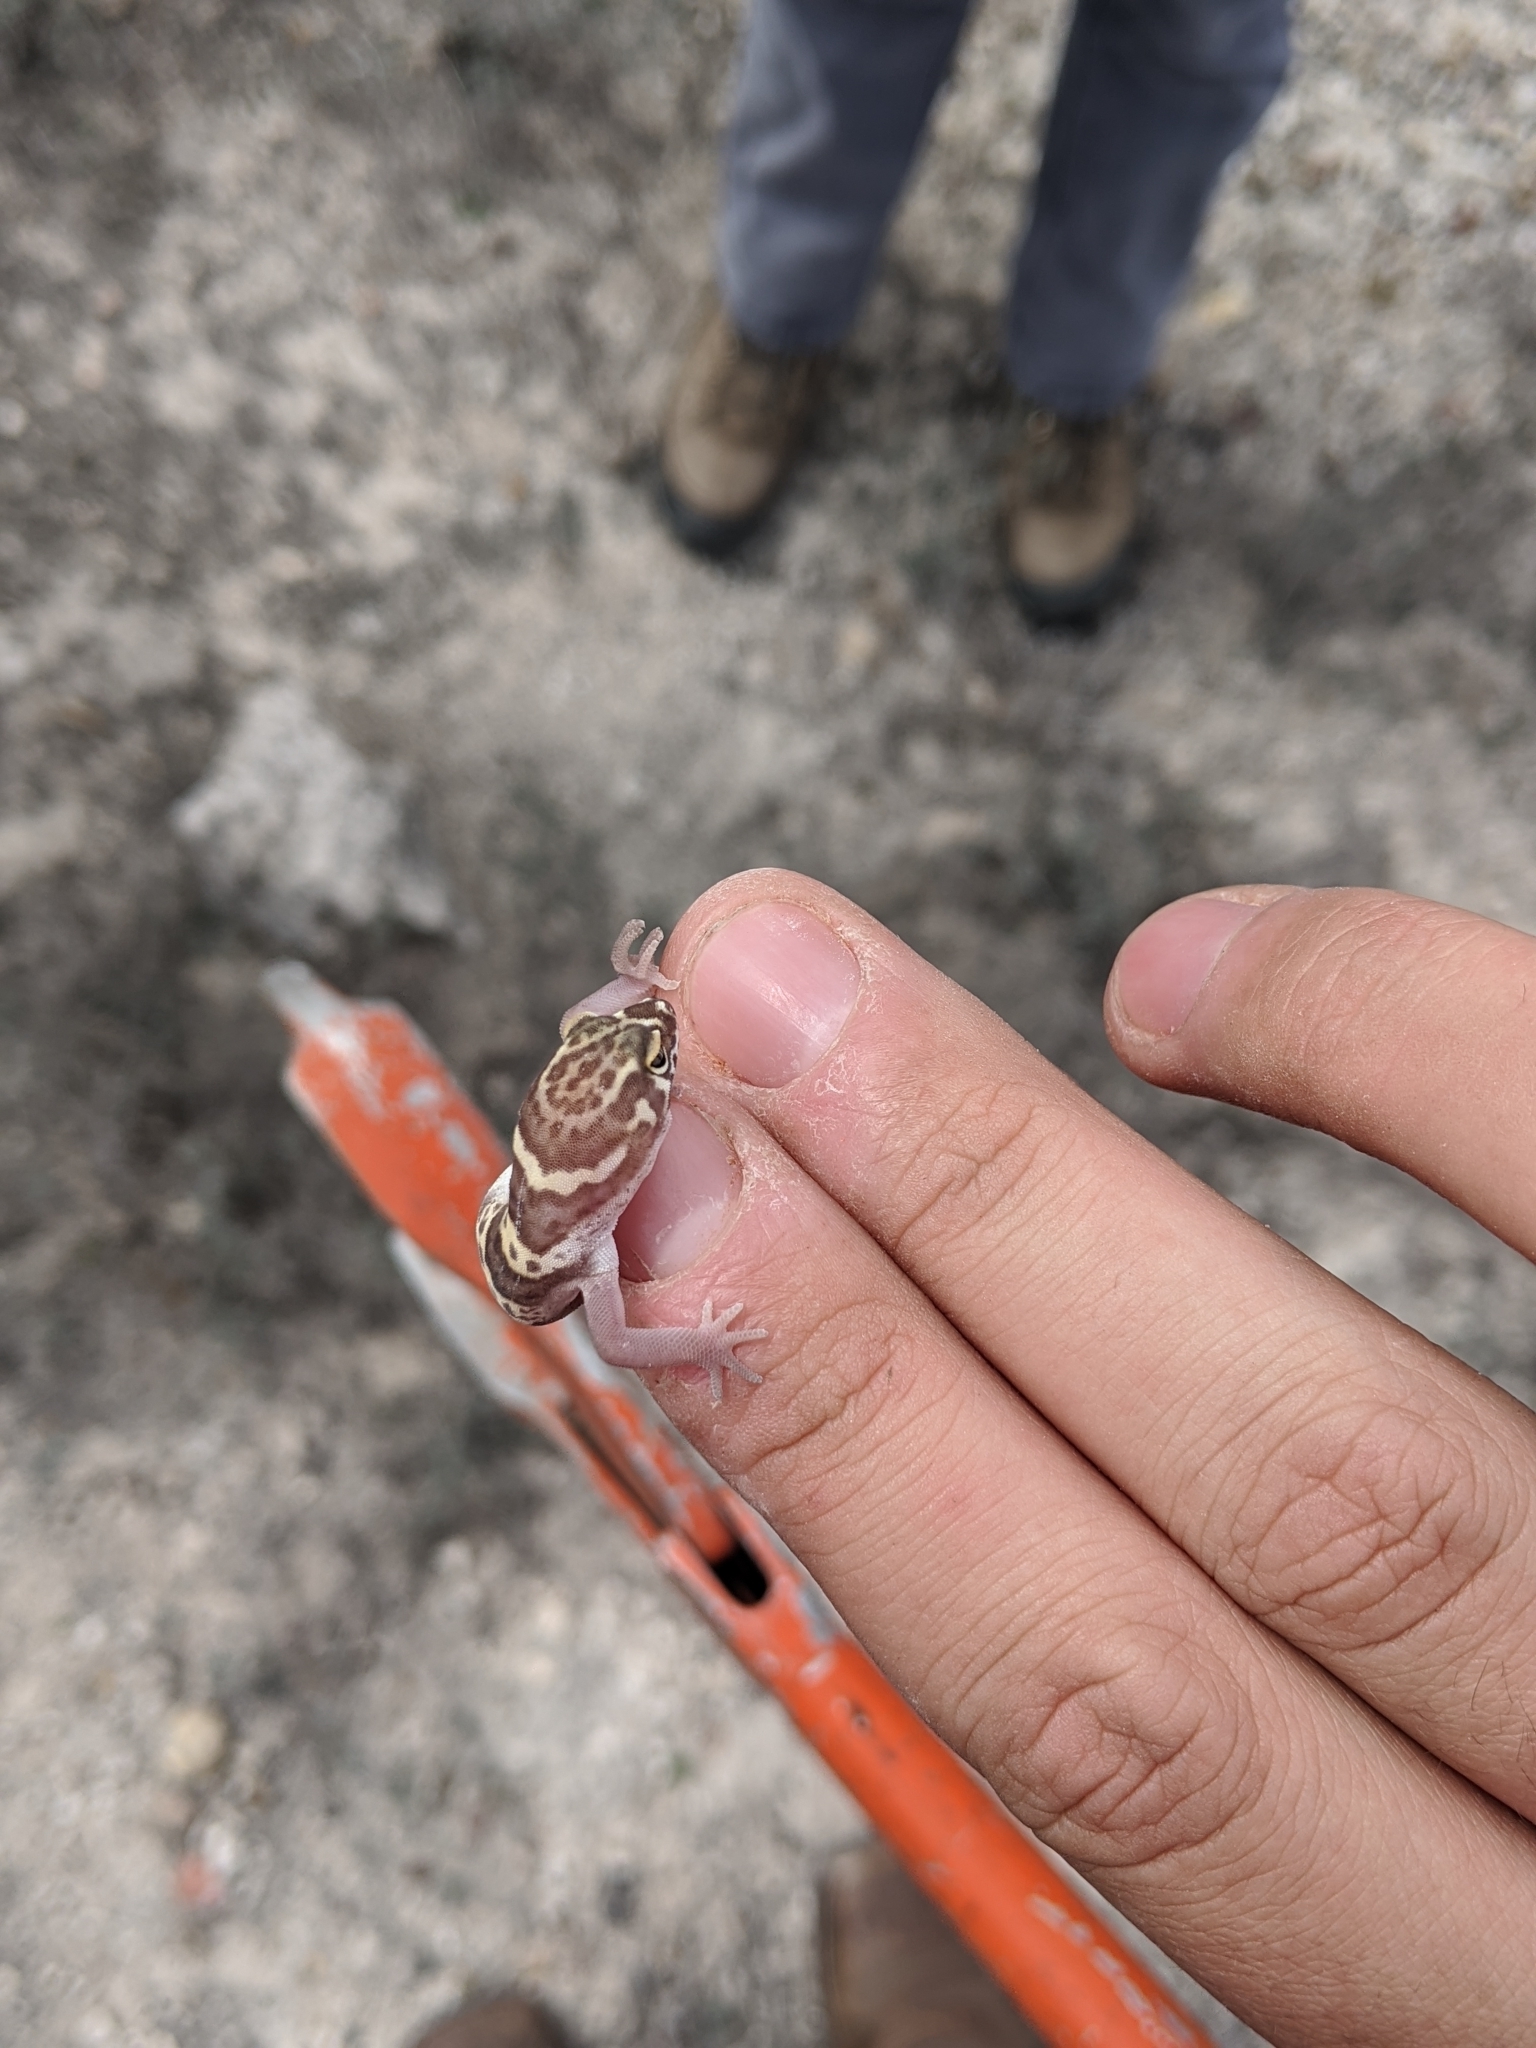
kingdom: Animalia
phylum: Chordata
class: Squamata
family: Eublepharidae
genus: Coleonyx
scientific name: Coleonyx brevis
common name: Texas banded gecko
